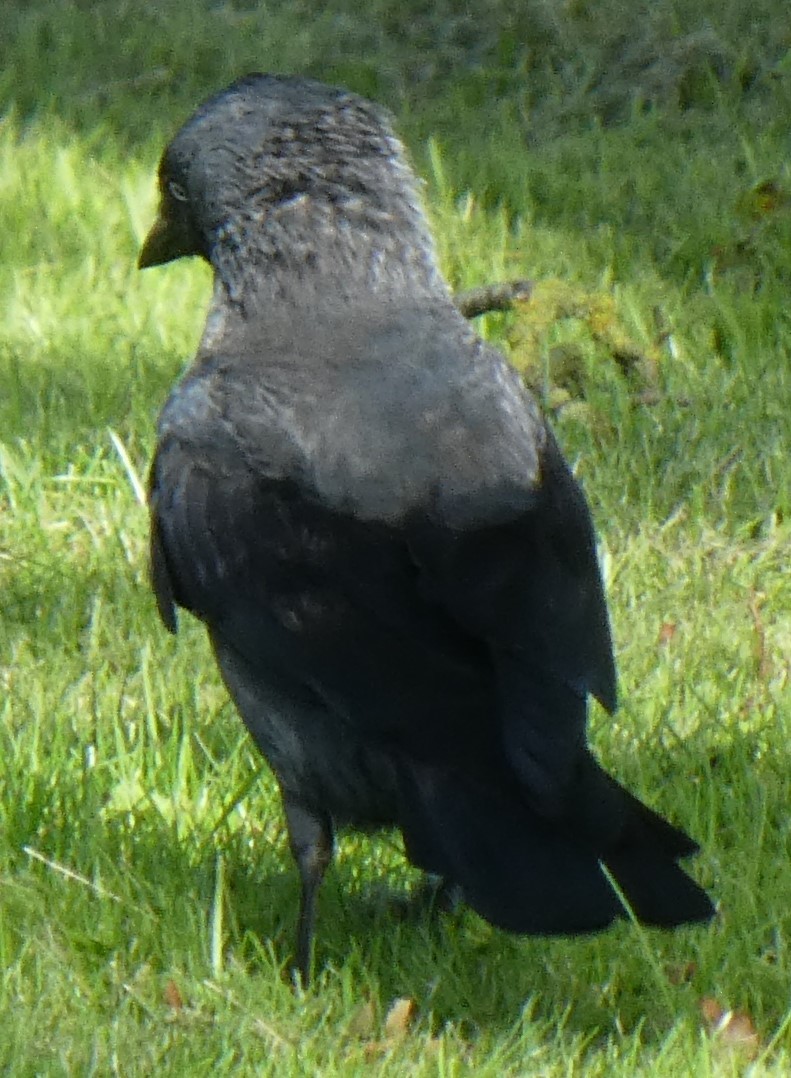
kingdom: Animalia
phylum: Chordata
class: Aves
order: Passeriformes
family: Corvidae
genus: Coloeus
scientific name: Coloeus monedula
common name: Western jackdaw
